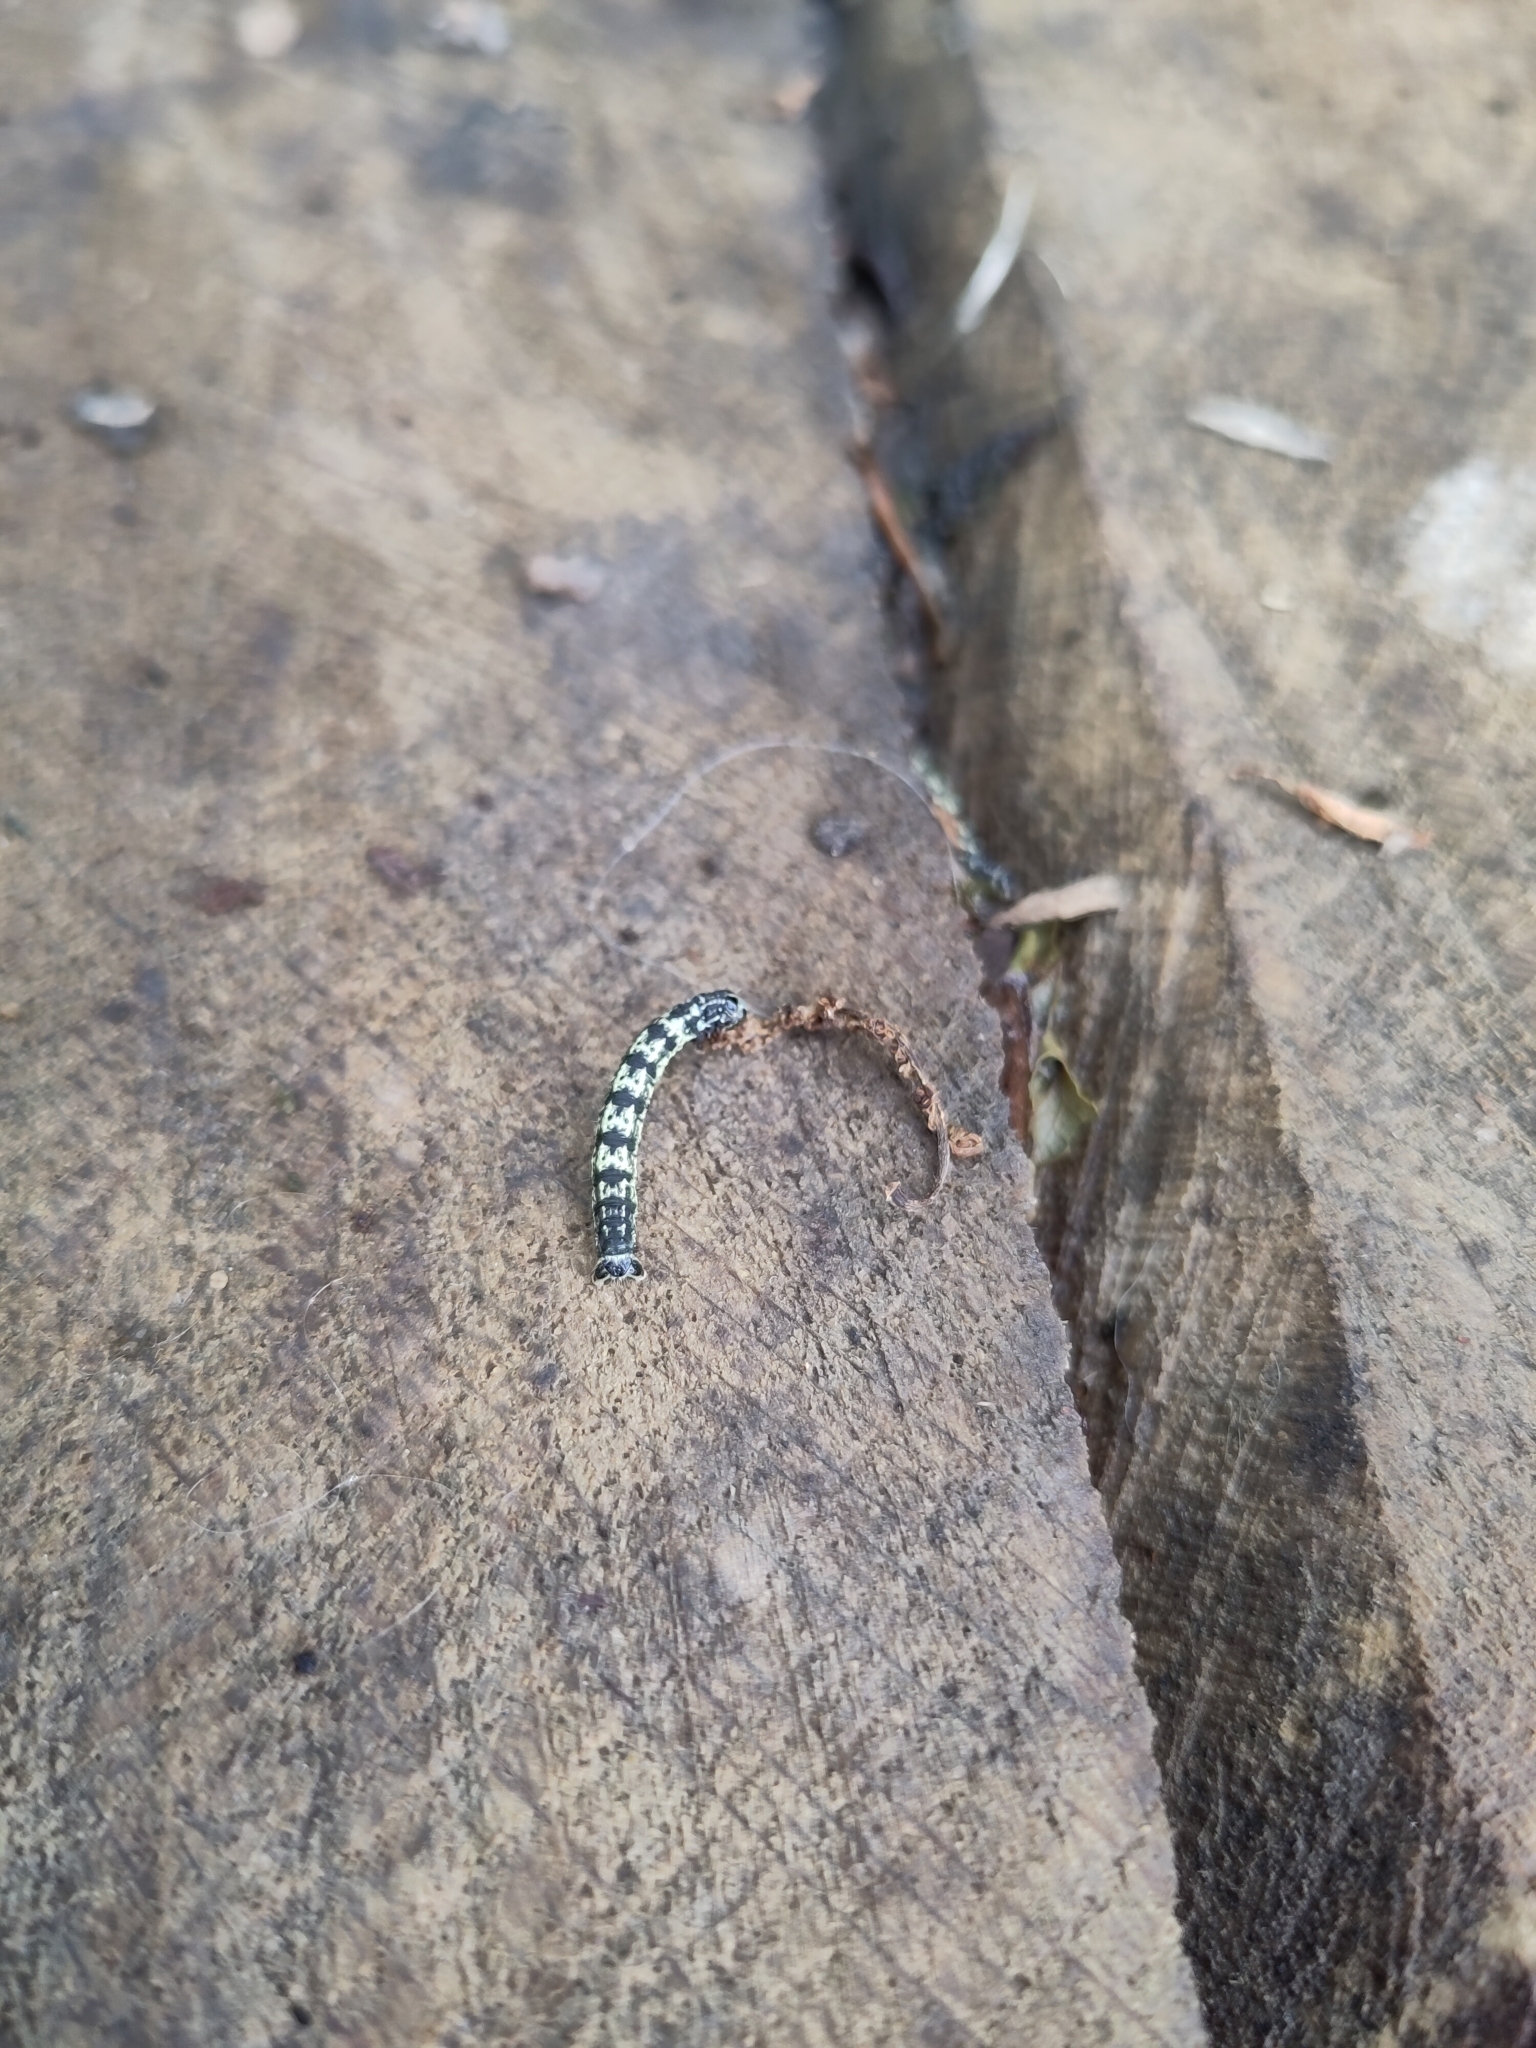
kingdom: Animalia
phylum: Arthropoda
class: Insecta
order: Lepidoptera
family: Geometridae
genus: Agriopis
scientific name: Agriopis leucophaearia
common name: Spring usher
